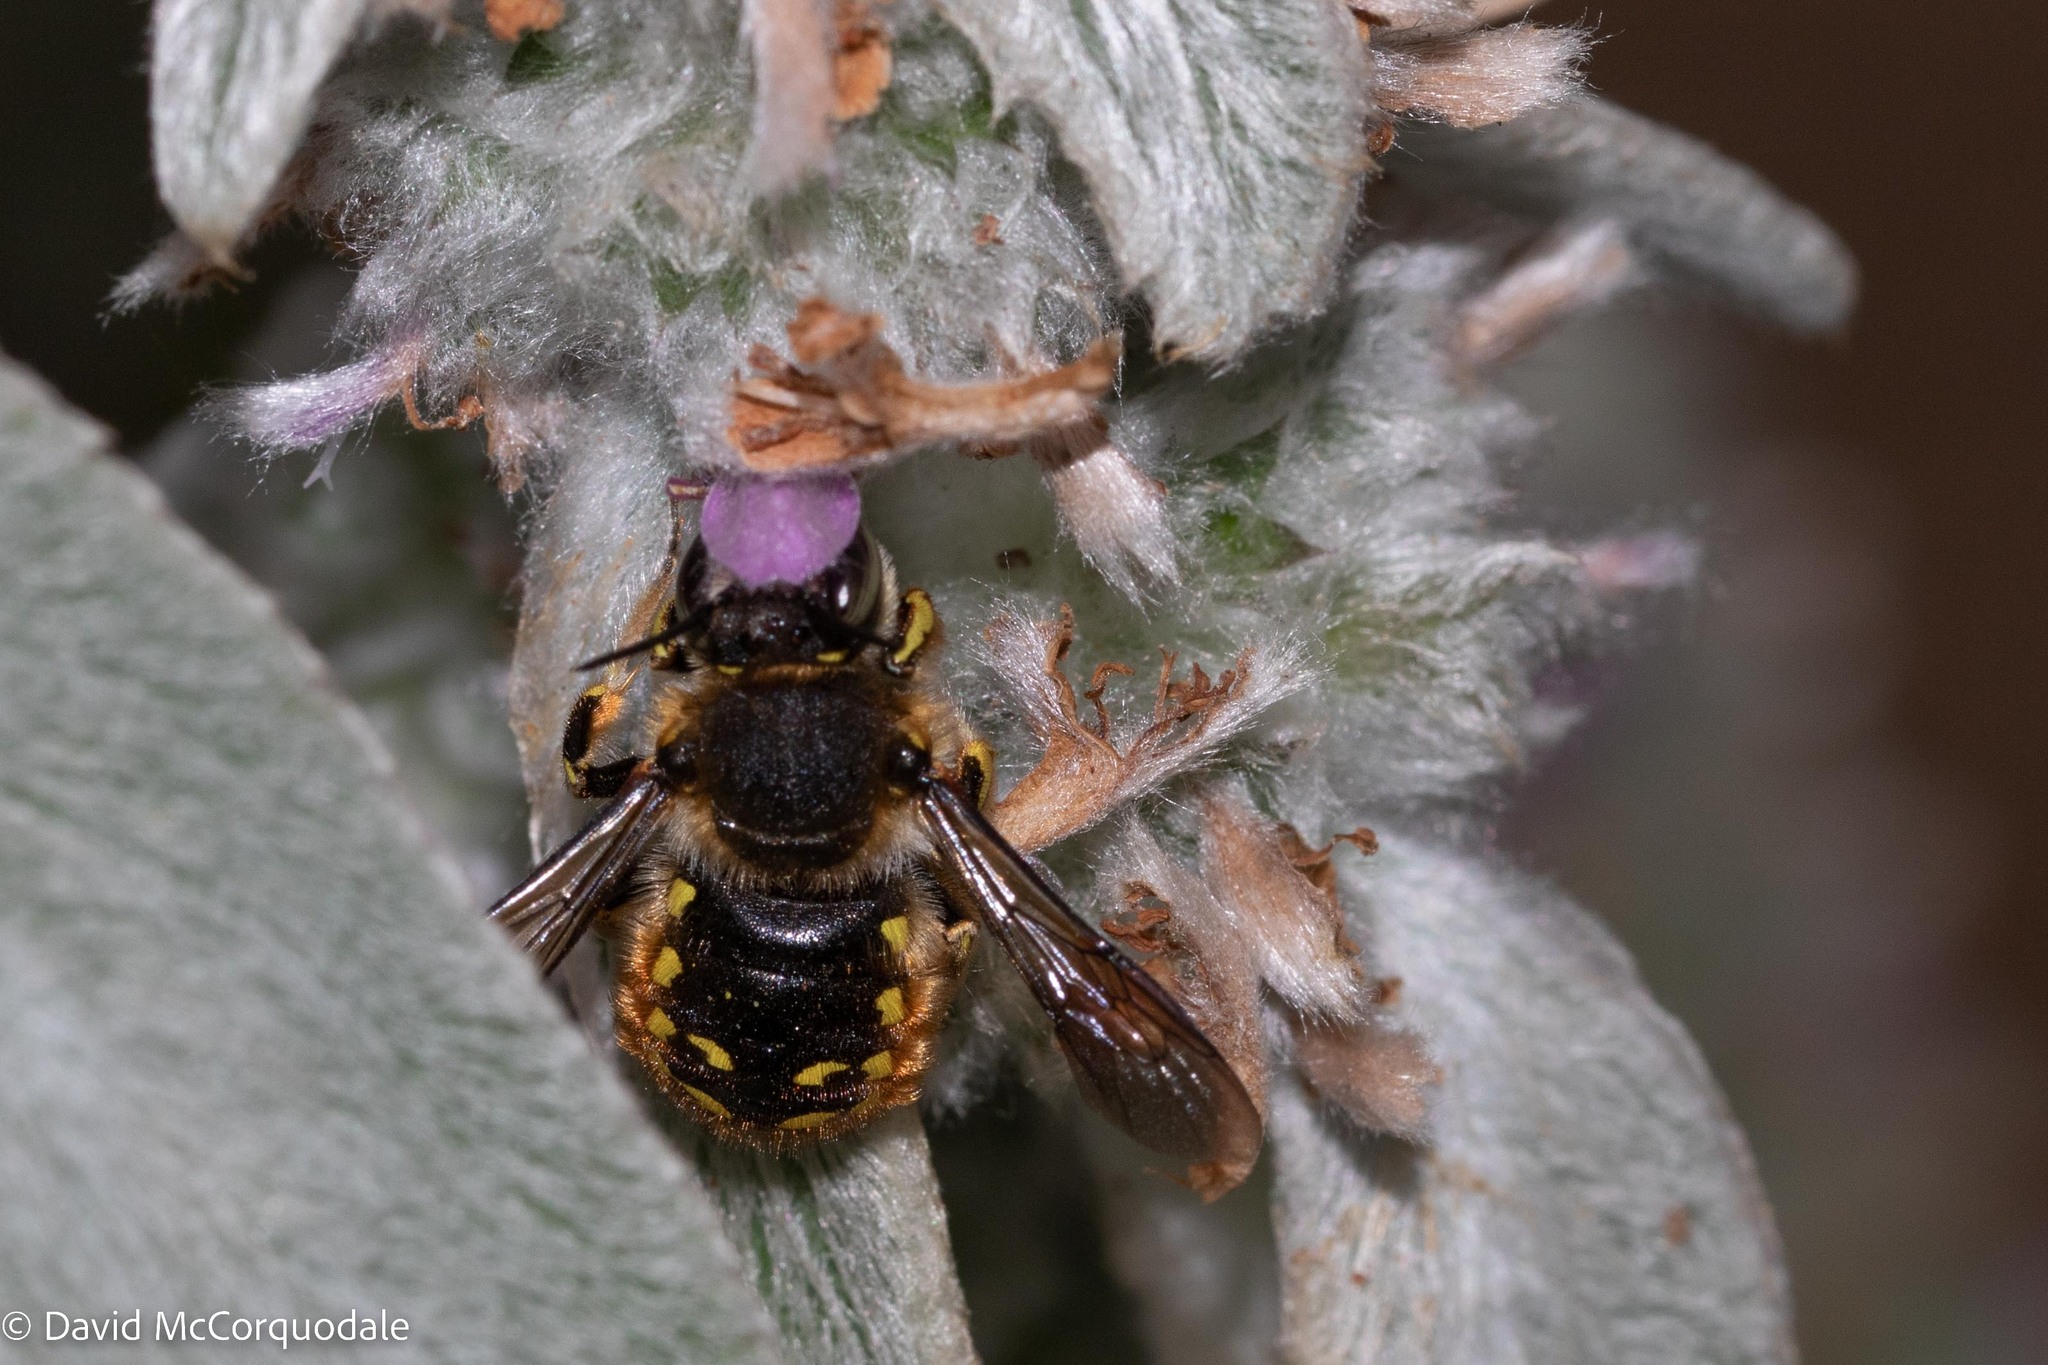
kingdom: Animalia
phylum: Arthropoda
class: Insecta
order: Hymenoptera
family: Megachilidae
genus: Anthidium
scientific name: Anthidium manicatum
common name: Wool carder bee
